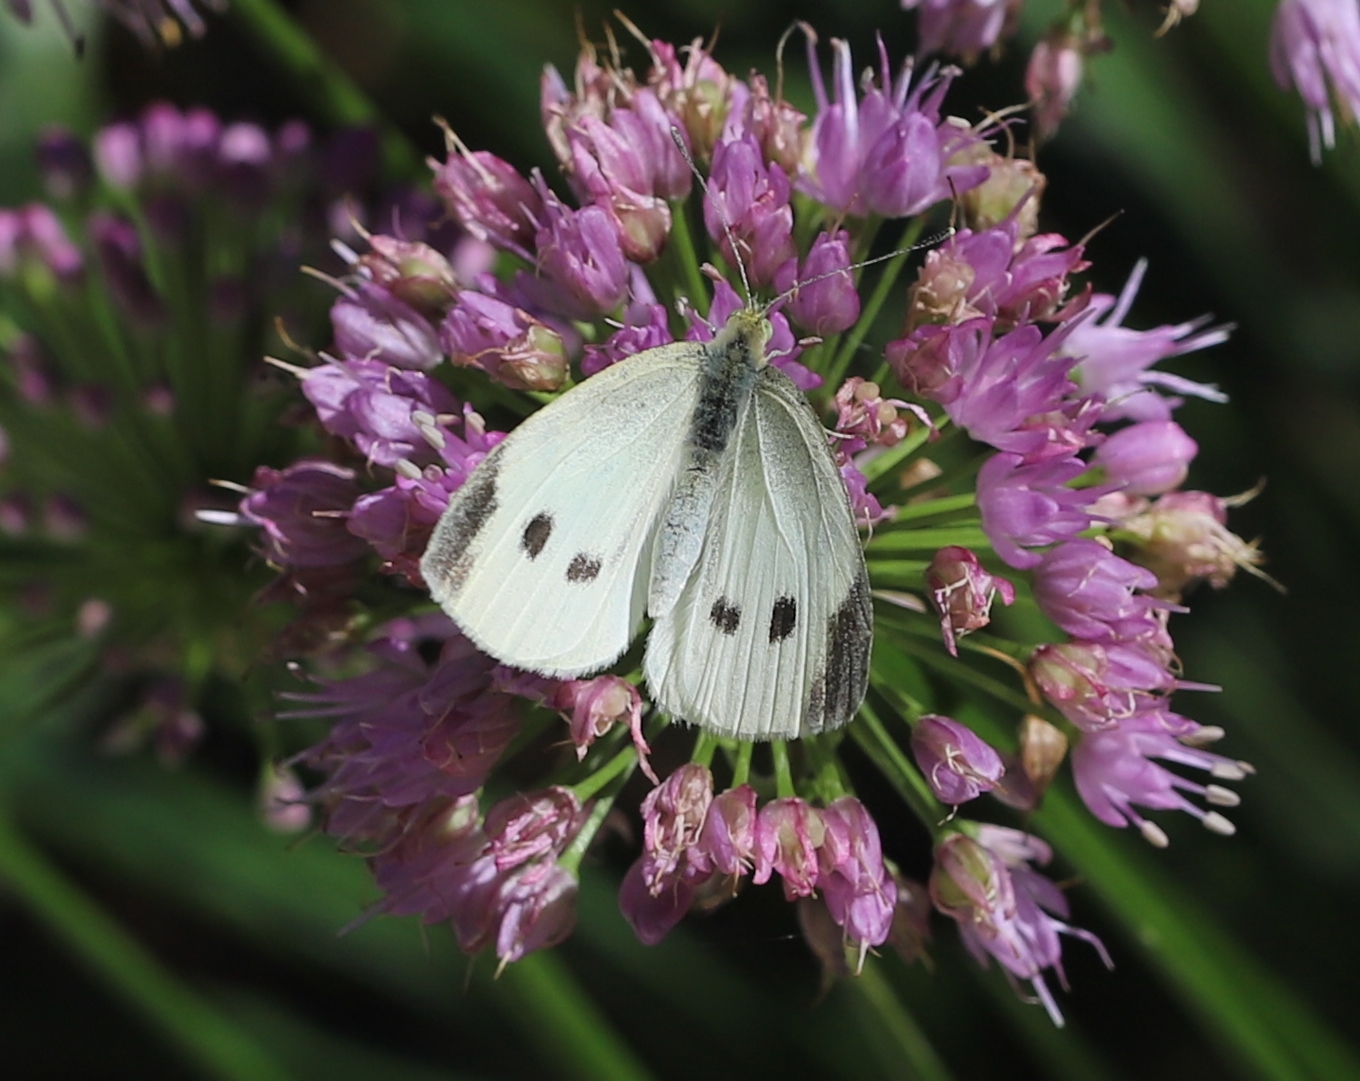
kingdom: Animalia
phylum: Arthropoda
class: Insecta
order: Lepidoptera
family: Pieridae
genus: Pieris
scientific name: Pieris rapae
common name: Small white
